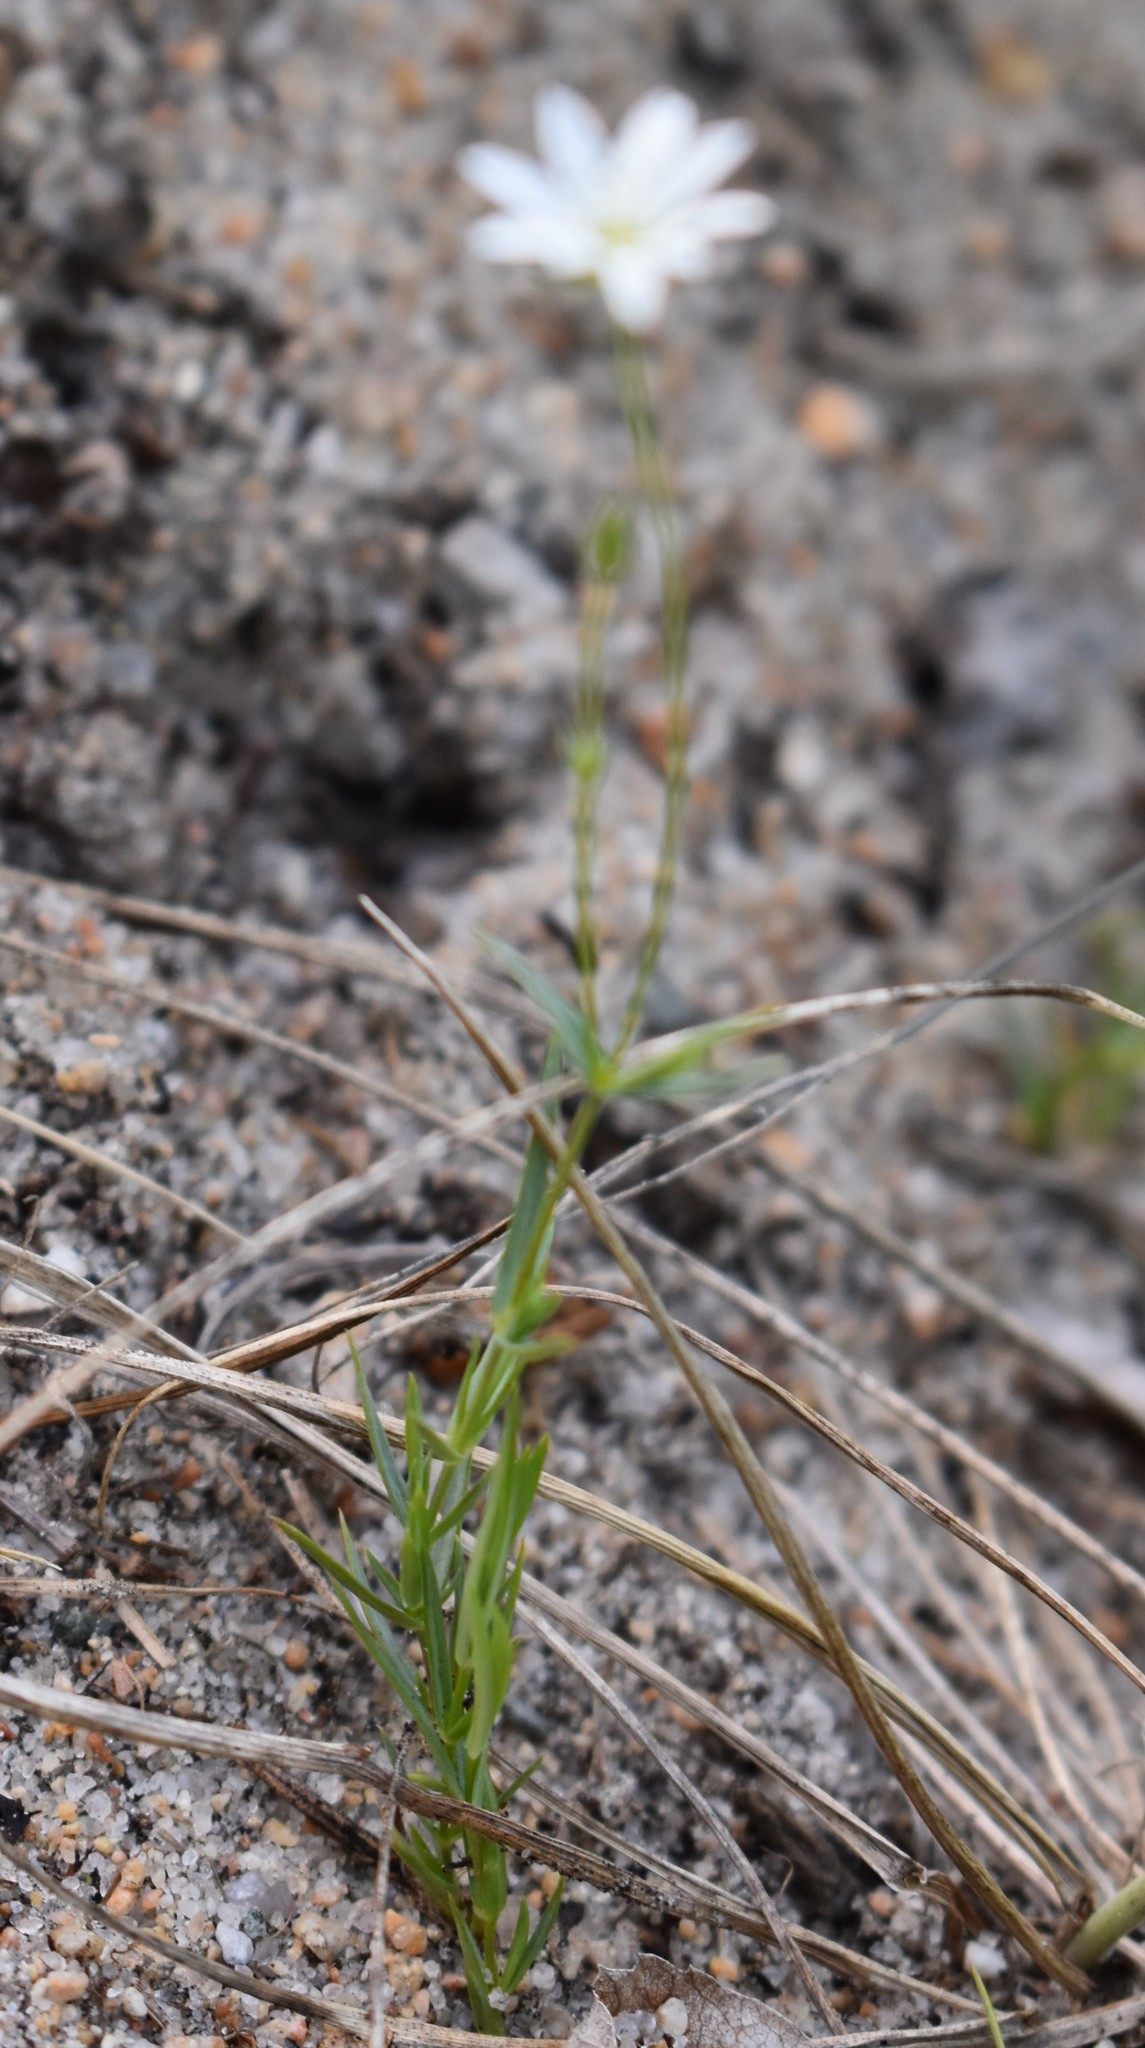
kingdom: Plantae
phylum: Tracheophyta
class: Magnoliopsida
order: Caryophyllales
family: Caryophyllaceae
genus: Stellaria
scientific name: Stellaria longipes
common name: Goldie's starwort
